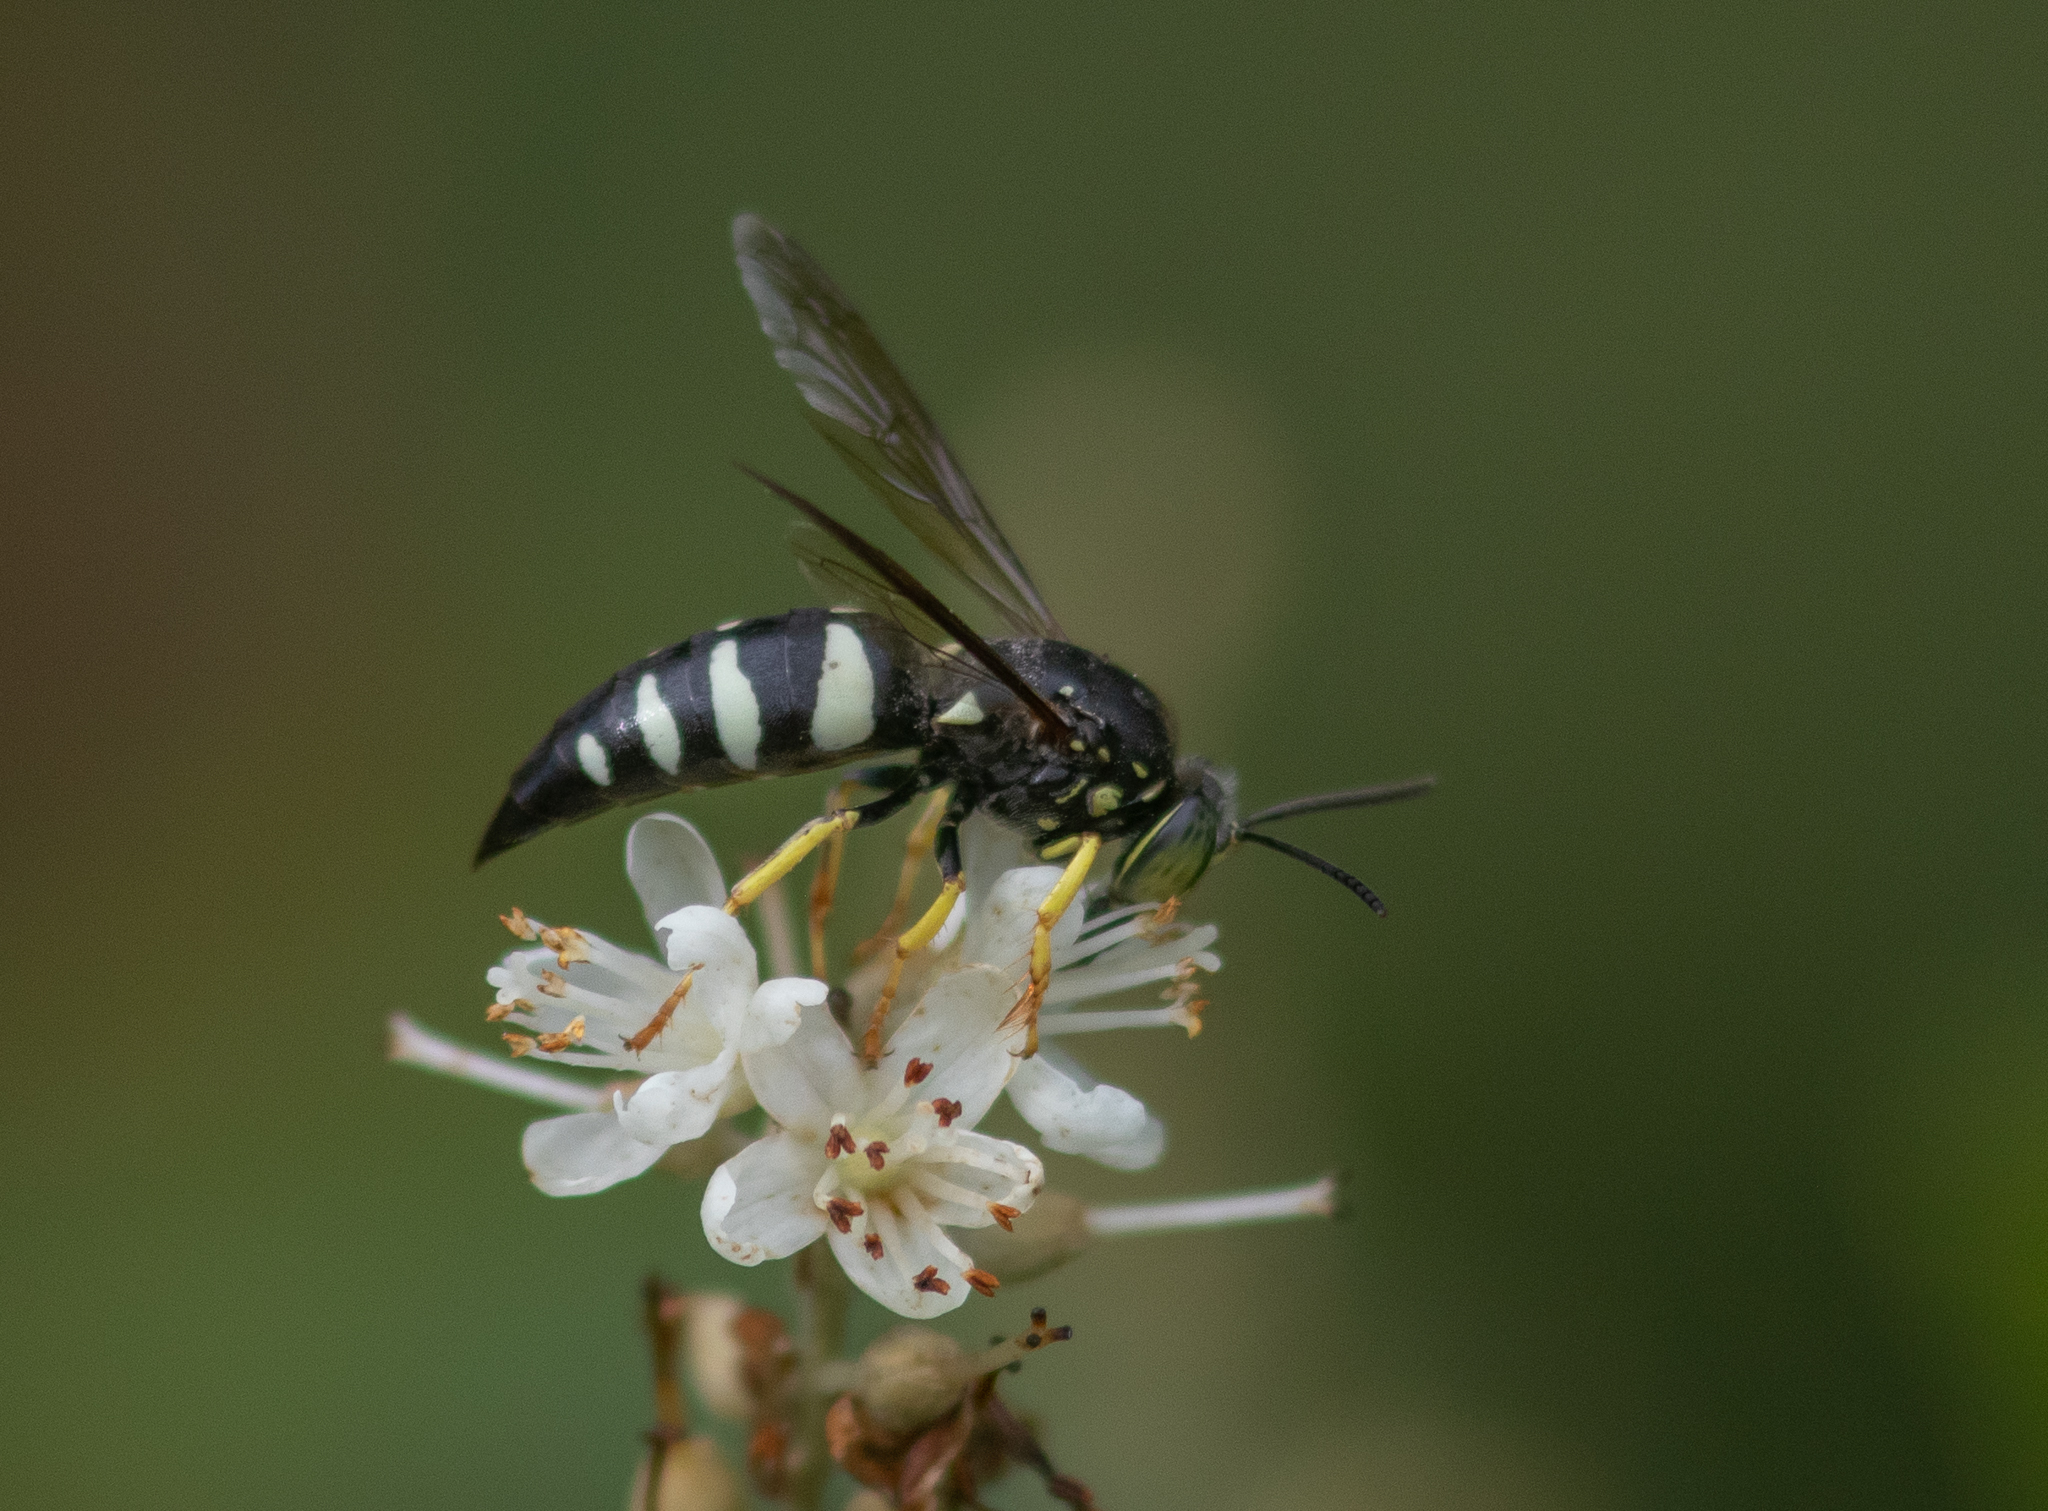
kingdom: Animalia
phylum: Arthropoda
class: Insecta
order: Hymenoptera
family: Crabronidae
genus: Bicyrtes
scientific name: Bicyrtes quadrifasciatus
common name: Four-banded stink bug hunter wasp
